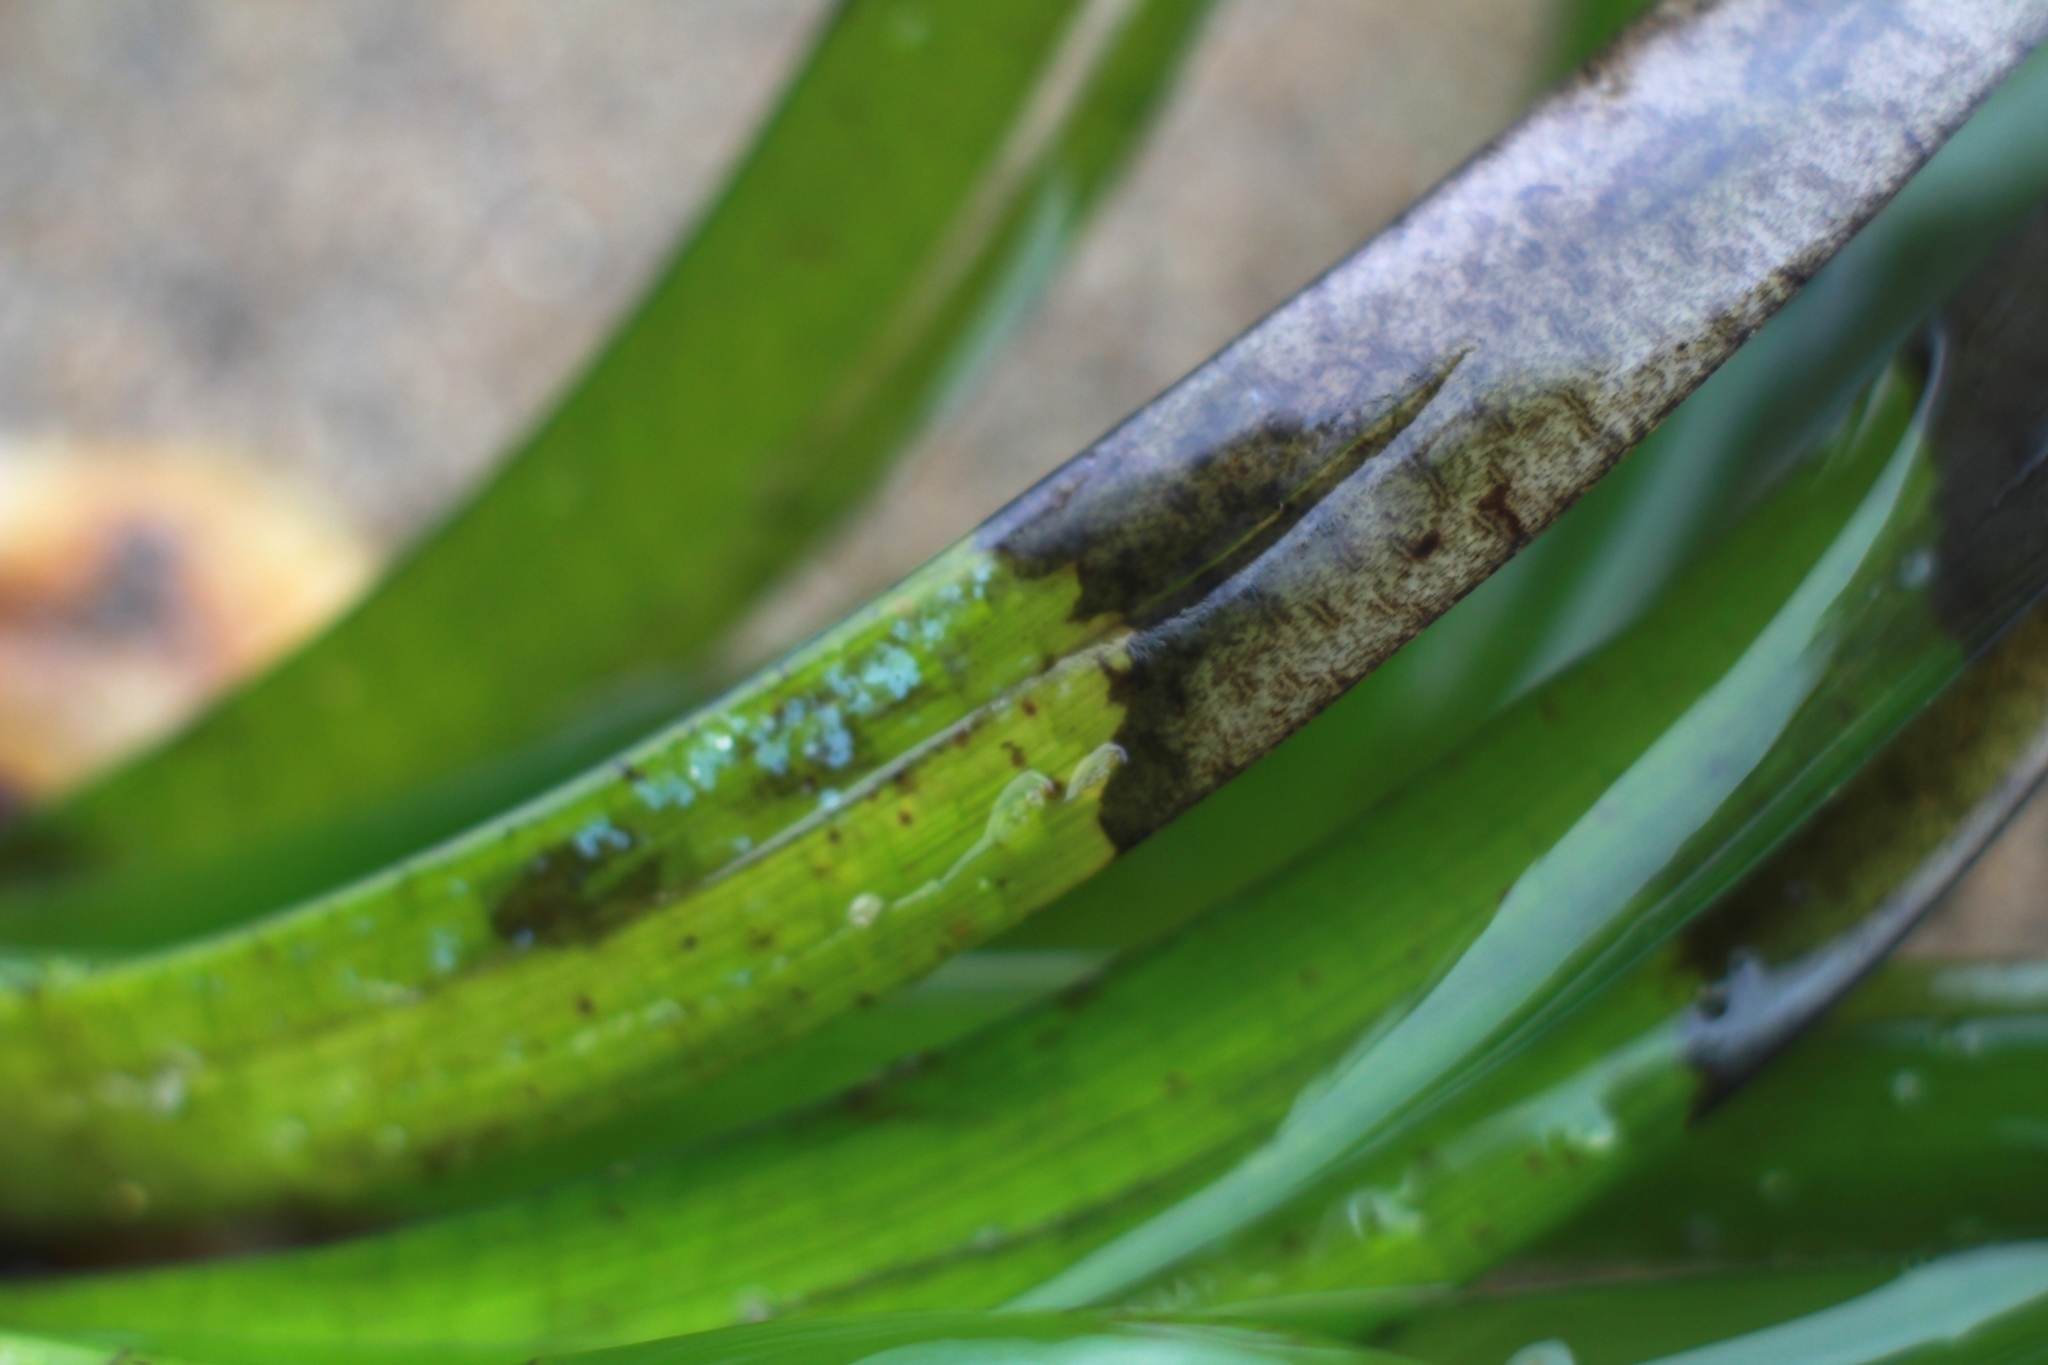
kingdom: Plantae
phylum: Tracheophyta
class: Liliopsida
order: Alismatales
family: Posidoniaceae
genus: Posidonia
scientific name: Posidonia oceanica
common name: Mediterranean tapeweed
